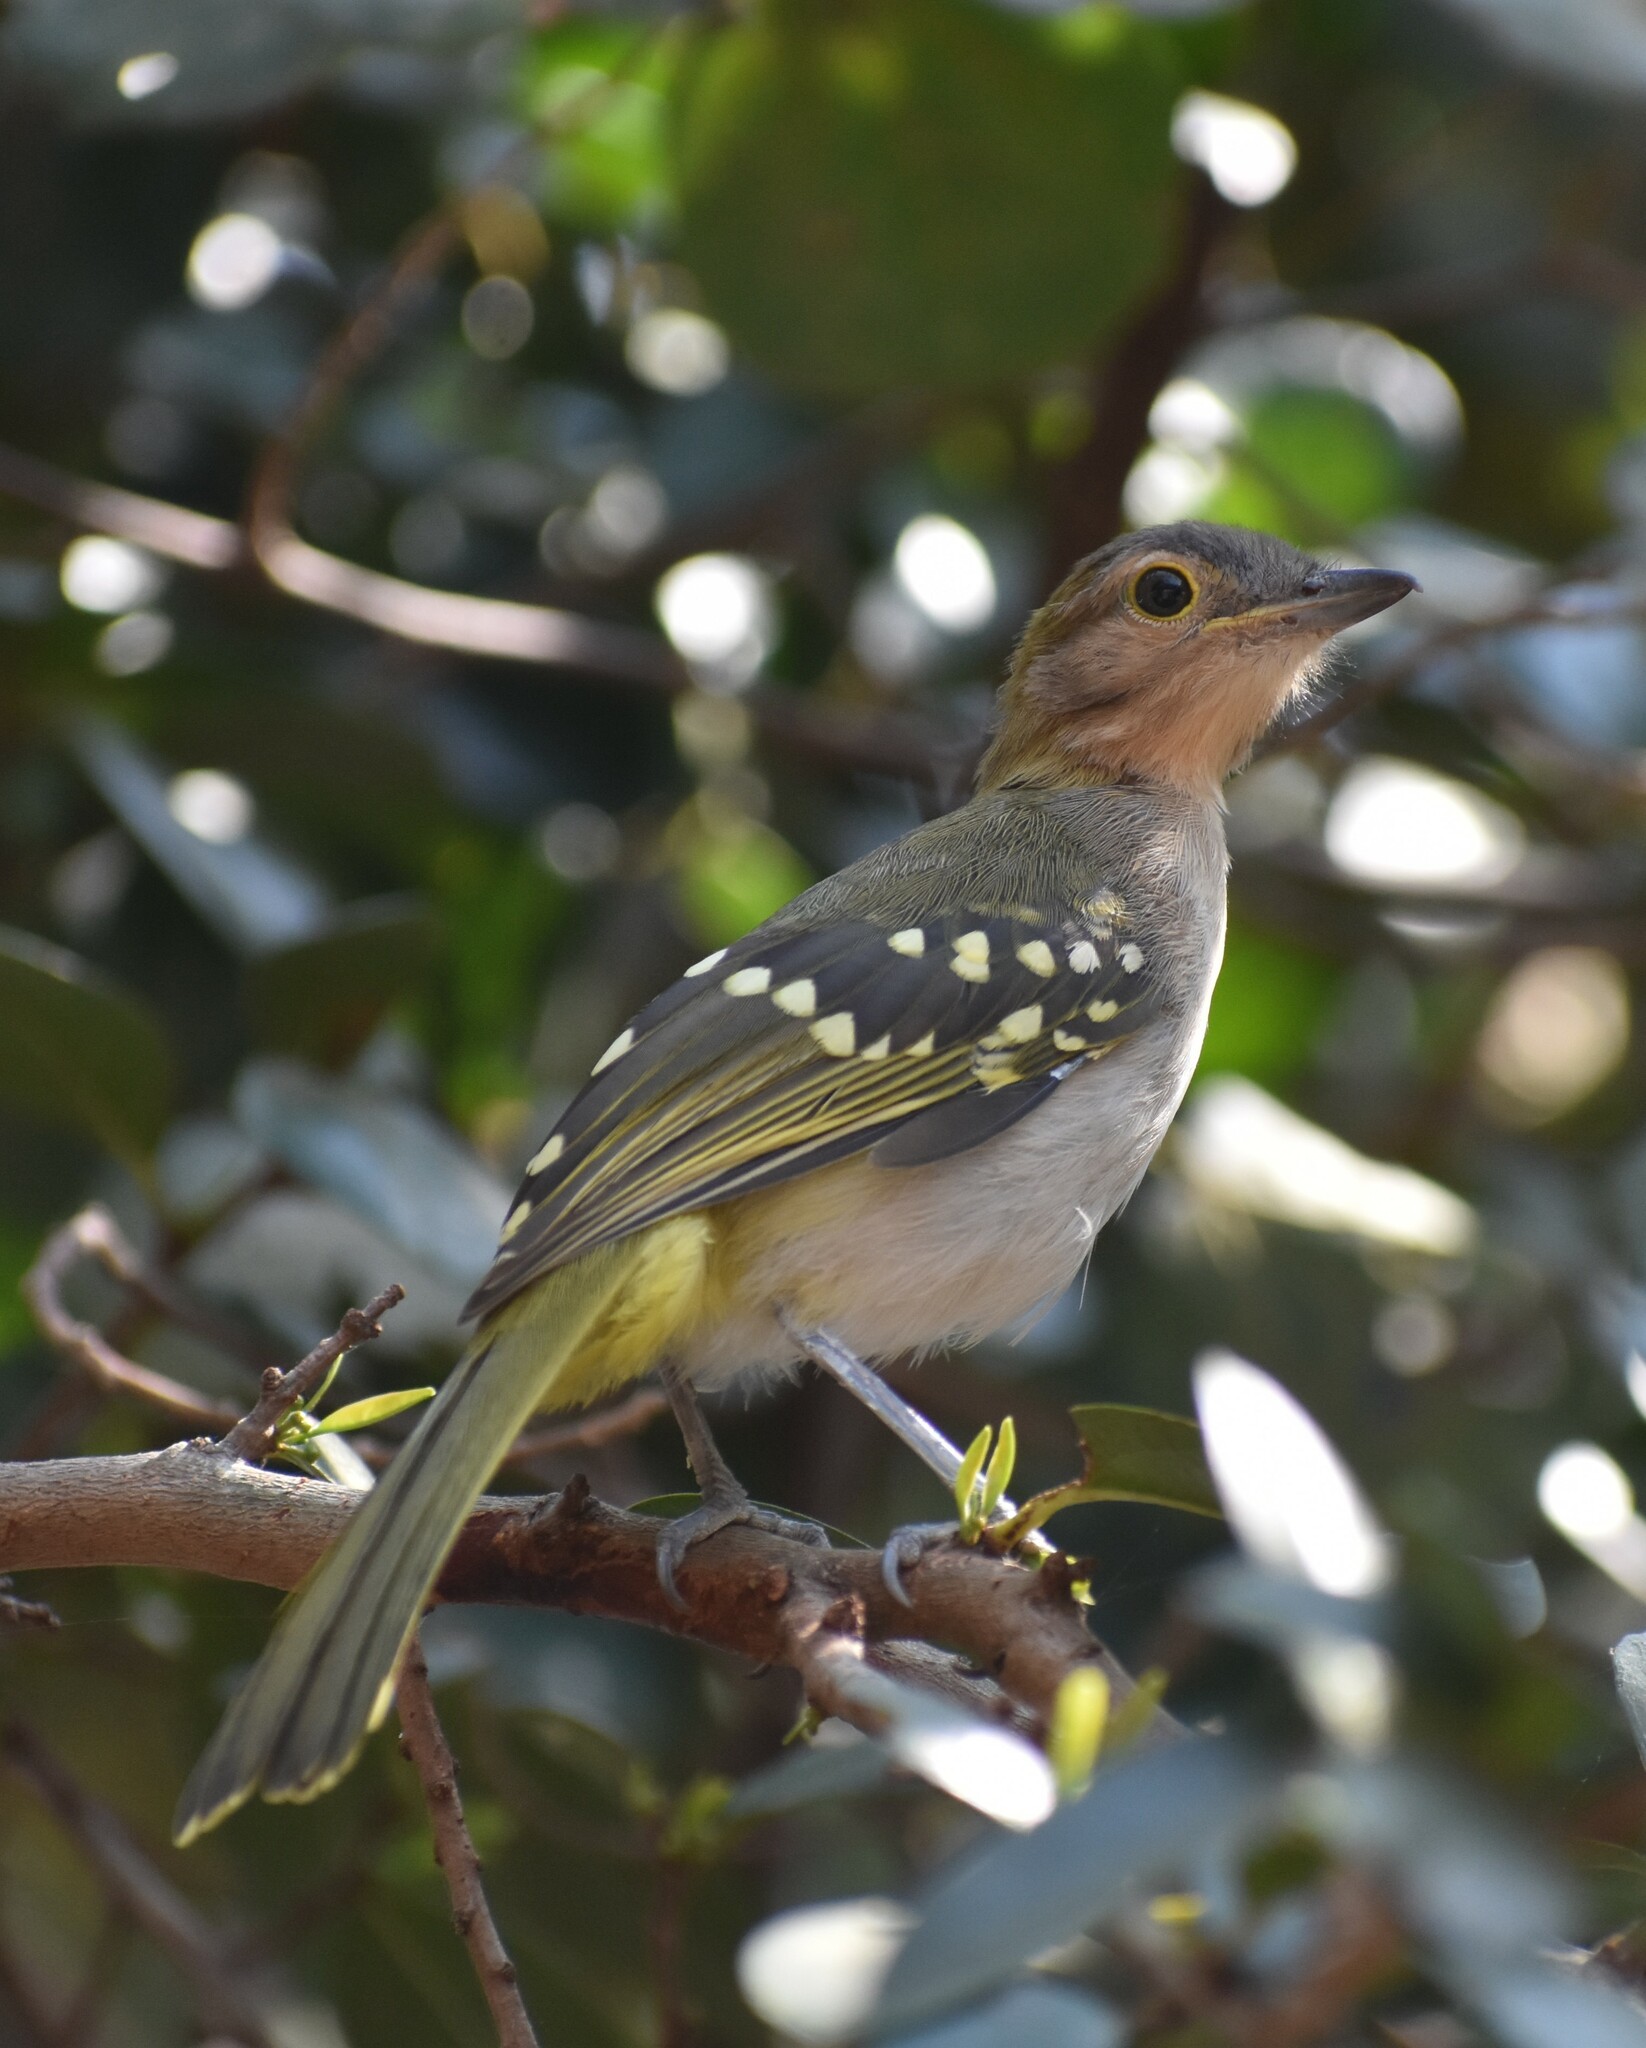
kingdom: Animalia
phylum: Chordata
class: Aves
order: Passeriformes
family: Nicatoridae
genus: Nicator
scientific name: Nicator gularis
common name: Eastern nicator
